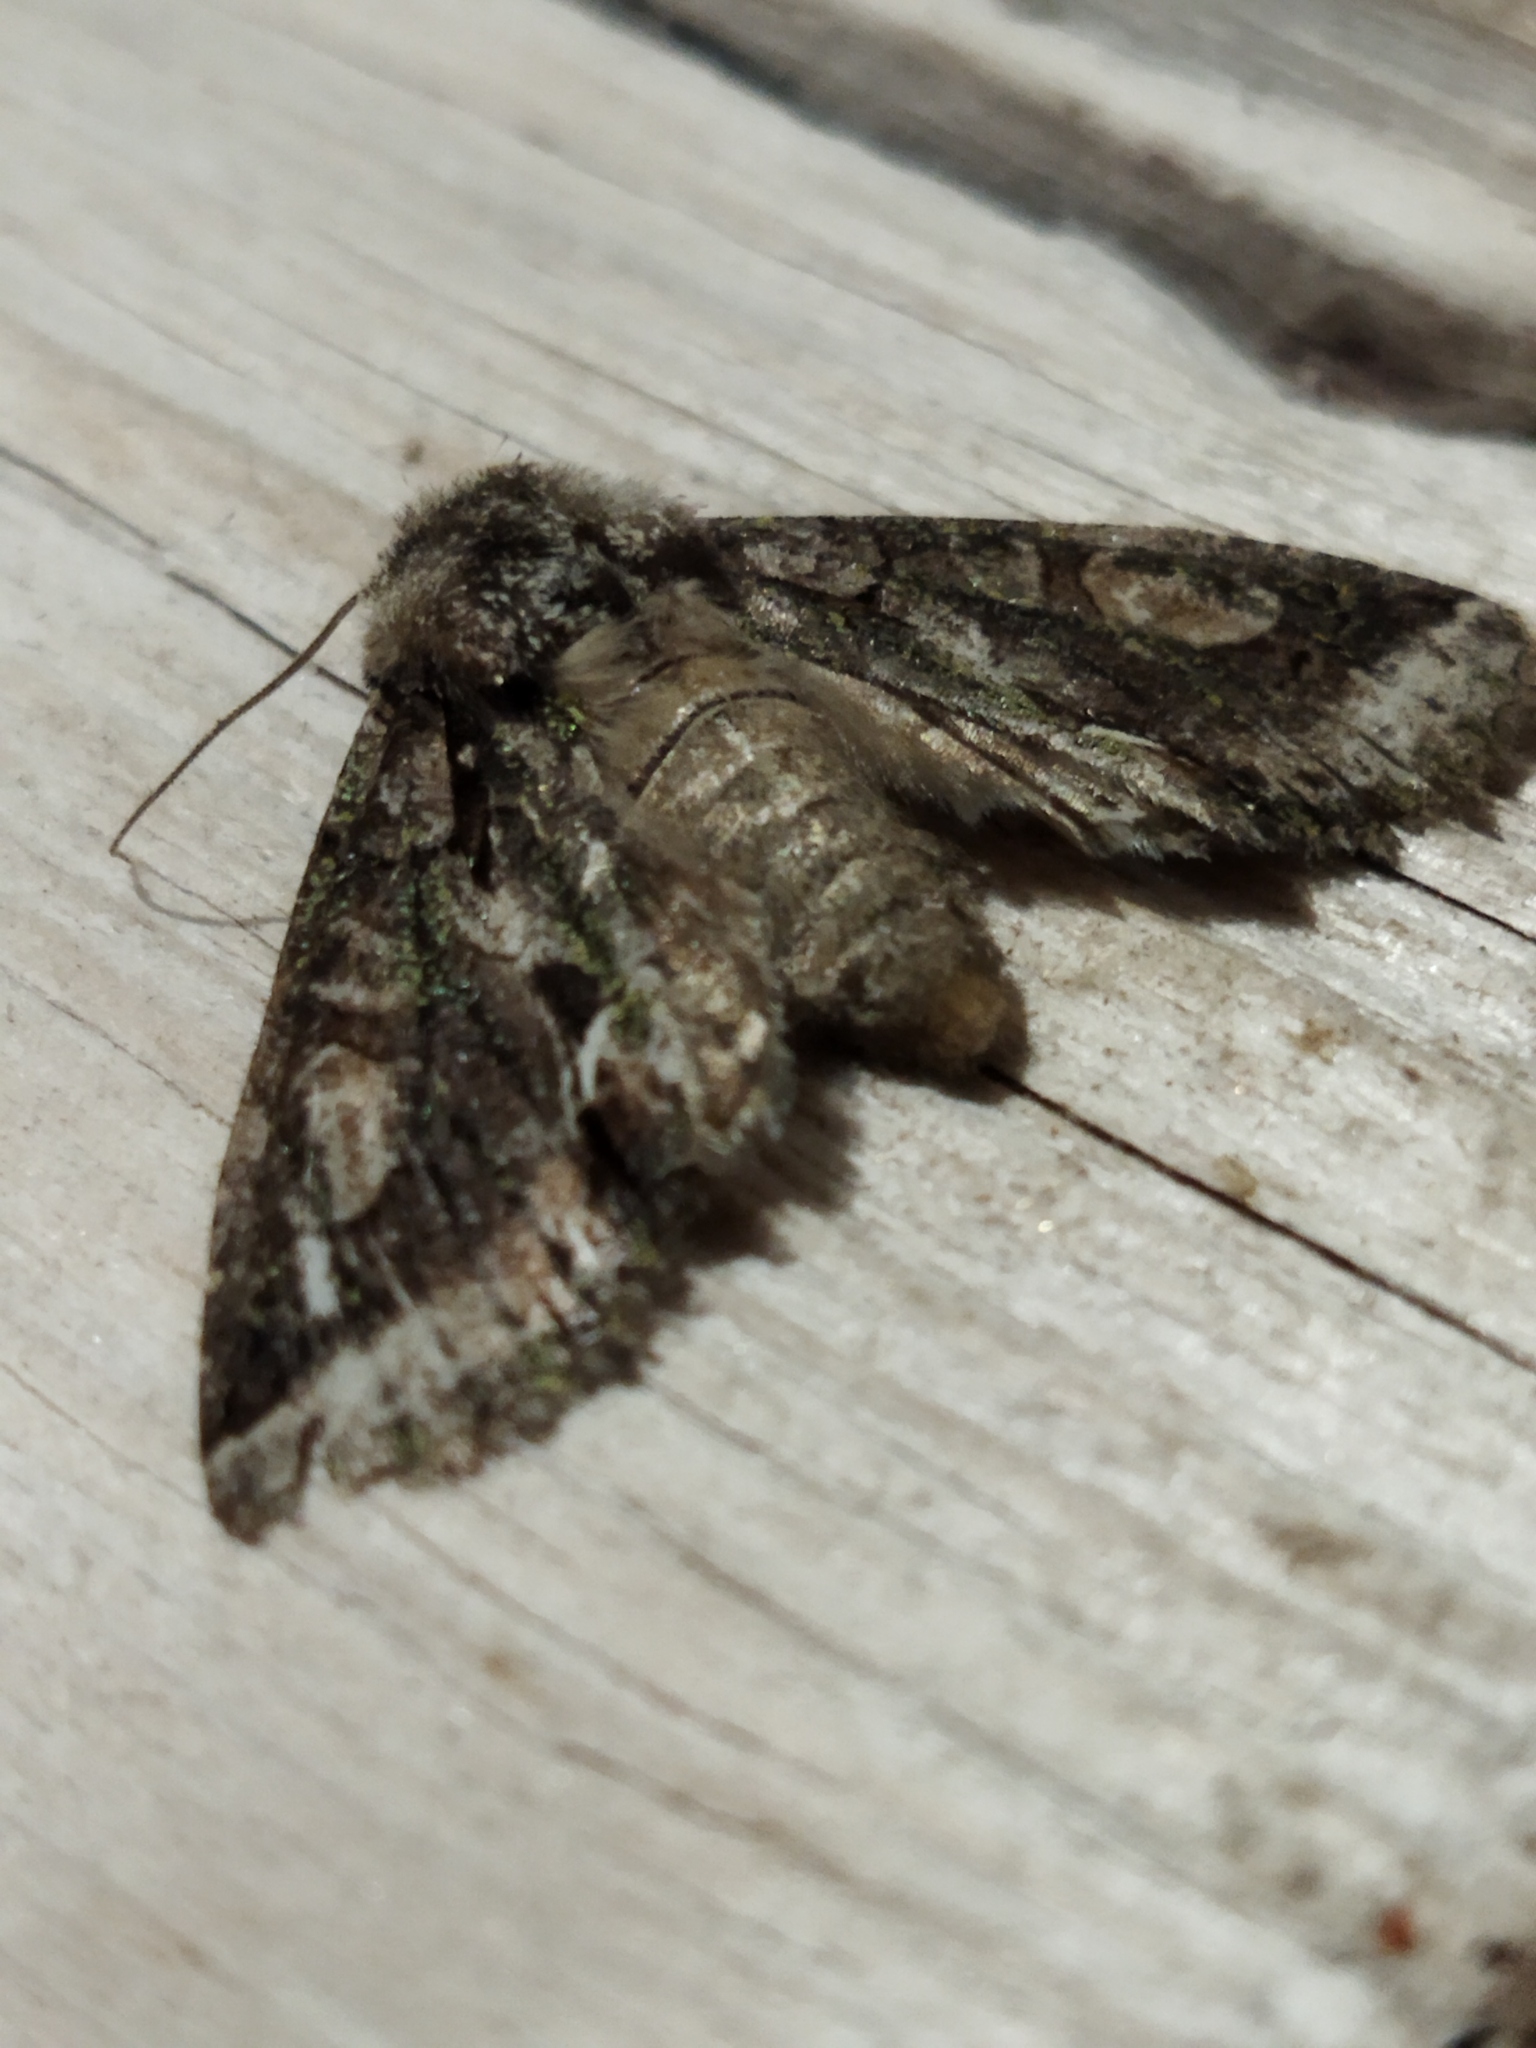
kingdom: Animalia
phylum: Arthropoda
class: Insecta
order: Lepidoptera
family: Noctuidae
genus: Allophyes
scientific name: Allophyes oxyacanthae
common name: Green-brindled crescent
